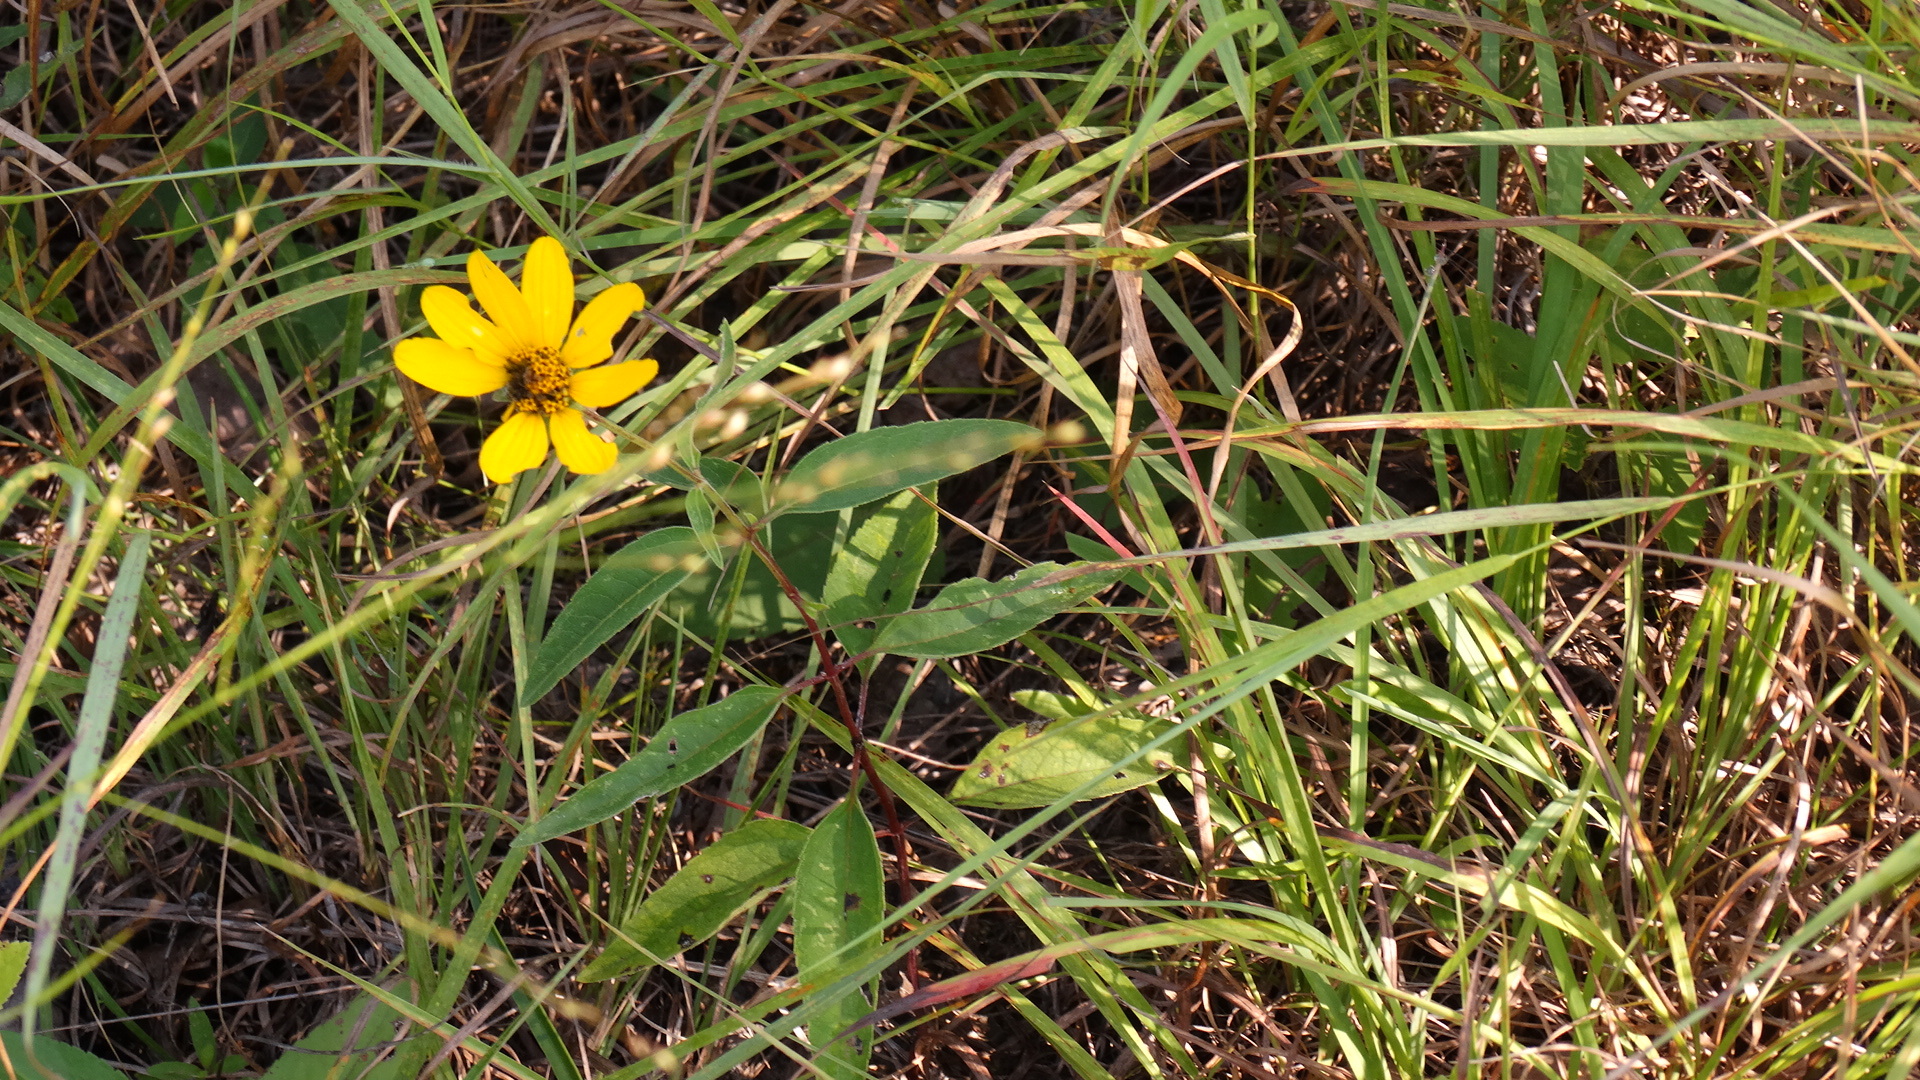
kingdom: Plantae
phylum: Tracheophyta
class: Magnoliopsida
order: Asterales
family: Asteraceae
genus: Heliopsis
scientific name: Heliopsis helianthoides
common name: False sunflower
